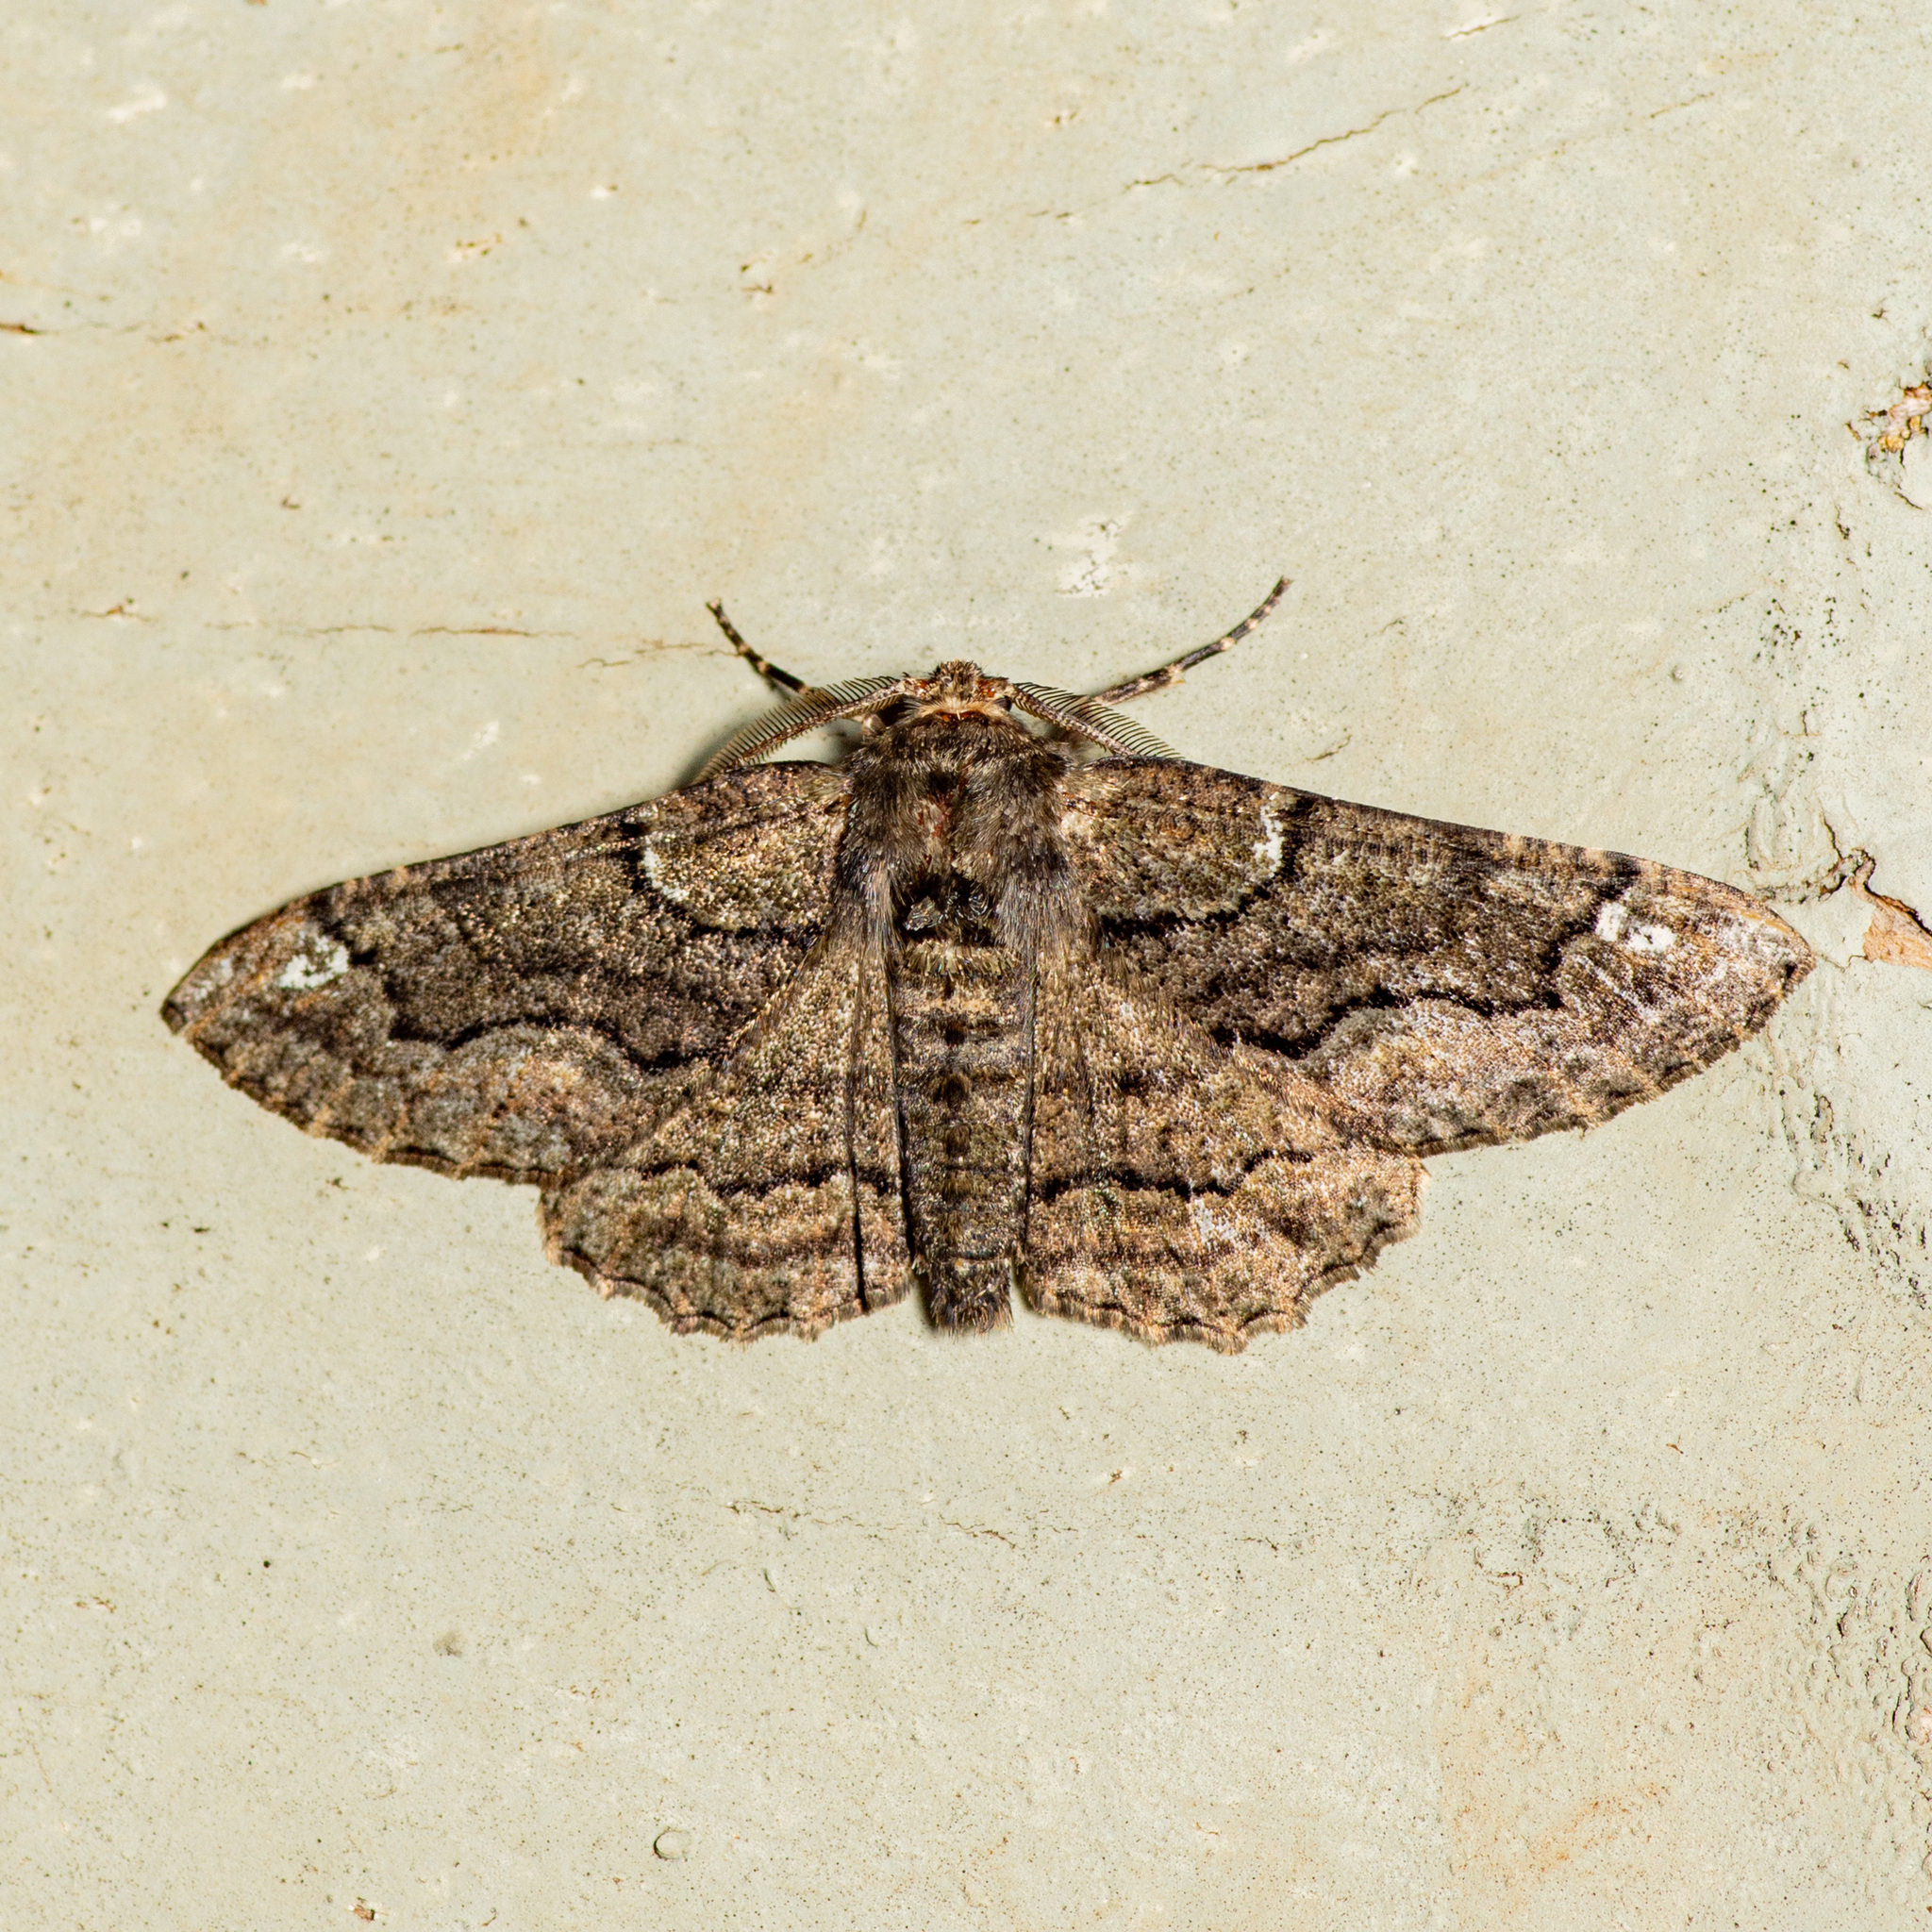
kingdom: Animalia
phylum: Arthropoda
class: Insecta
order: Lepidoptera
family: Geometridae
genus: Phaeoura
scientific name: Phaeoura quernaria
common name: Oak beauty
